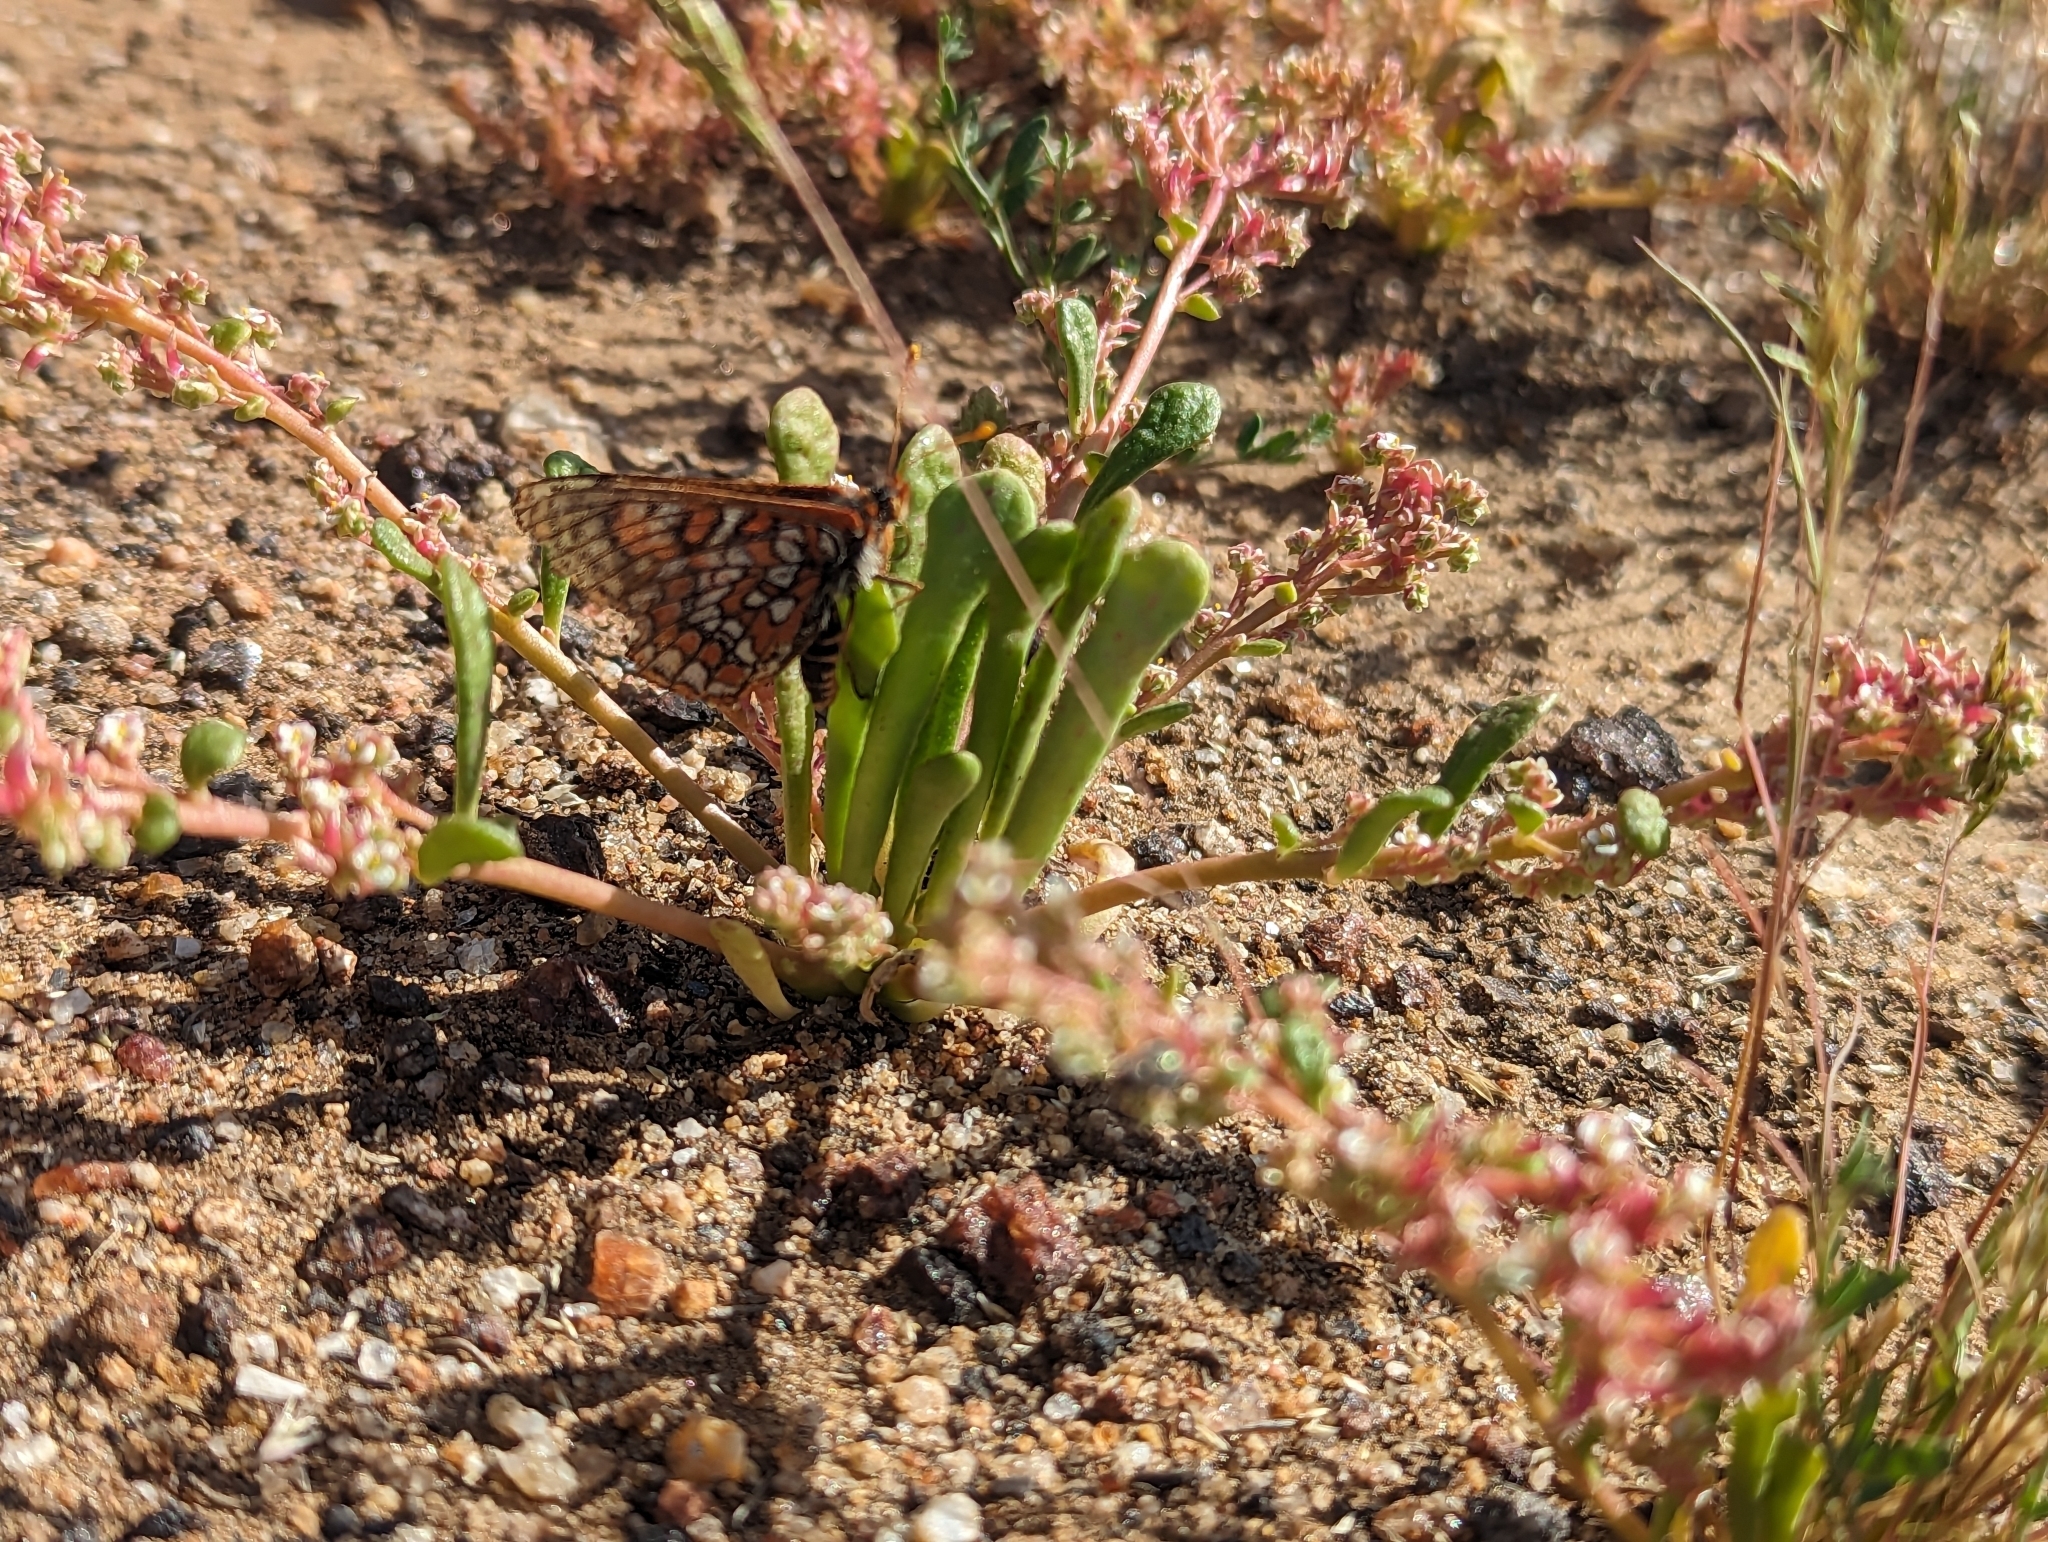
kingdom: Animalia
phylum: Arthropoda
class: Insecta
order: Lepidoptera
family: Nymphalidae
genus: Occidryas
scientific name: Occidryas editha
